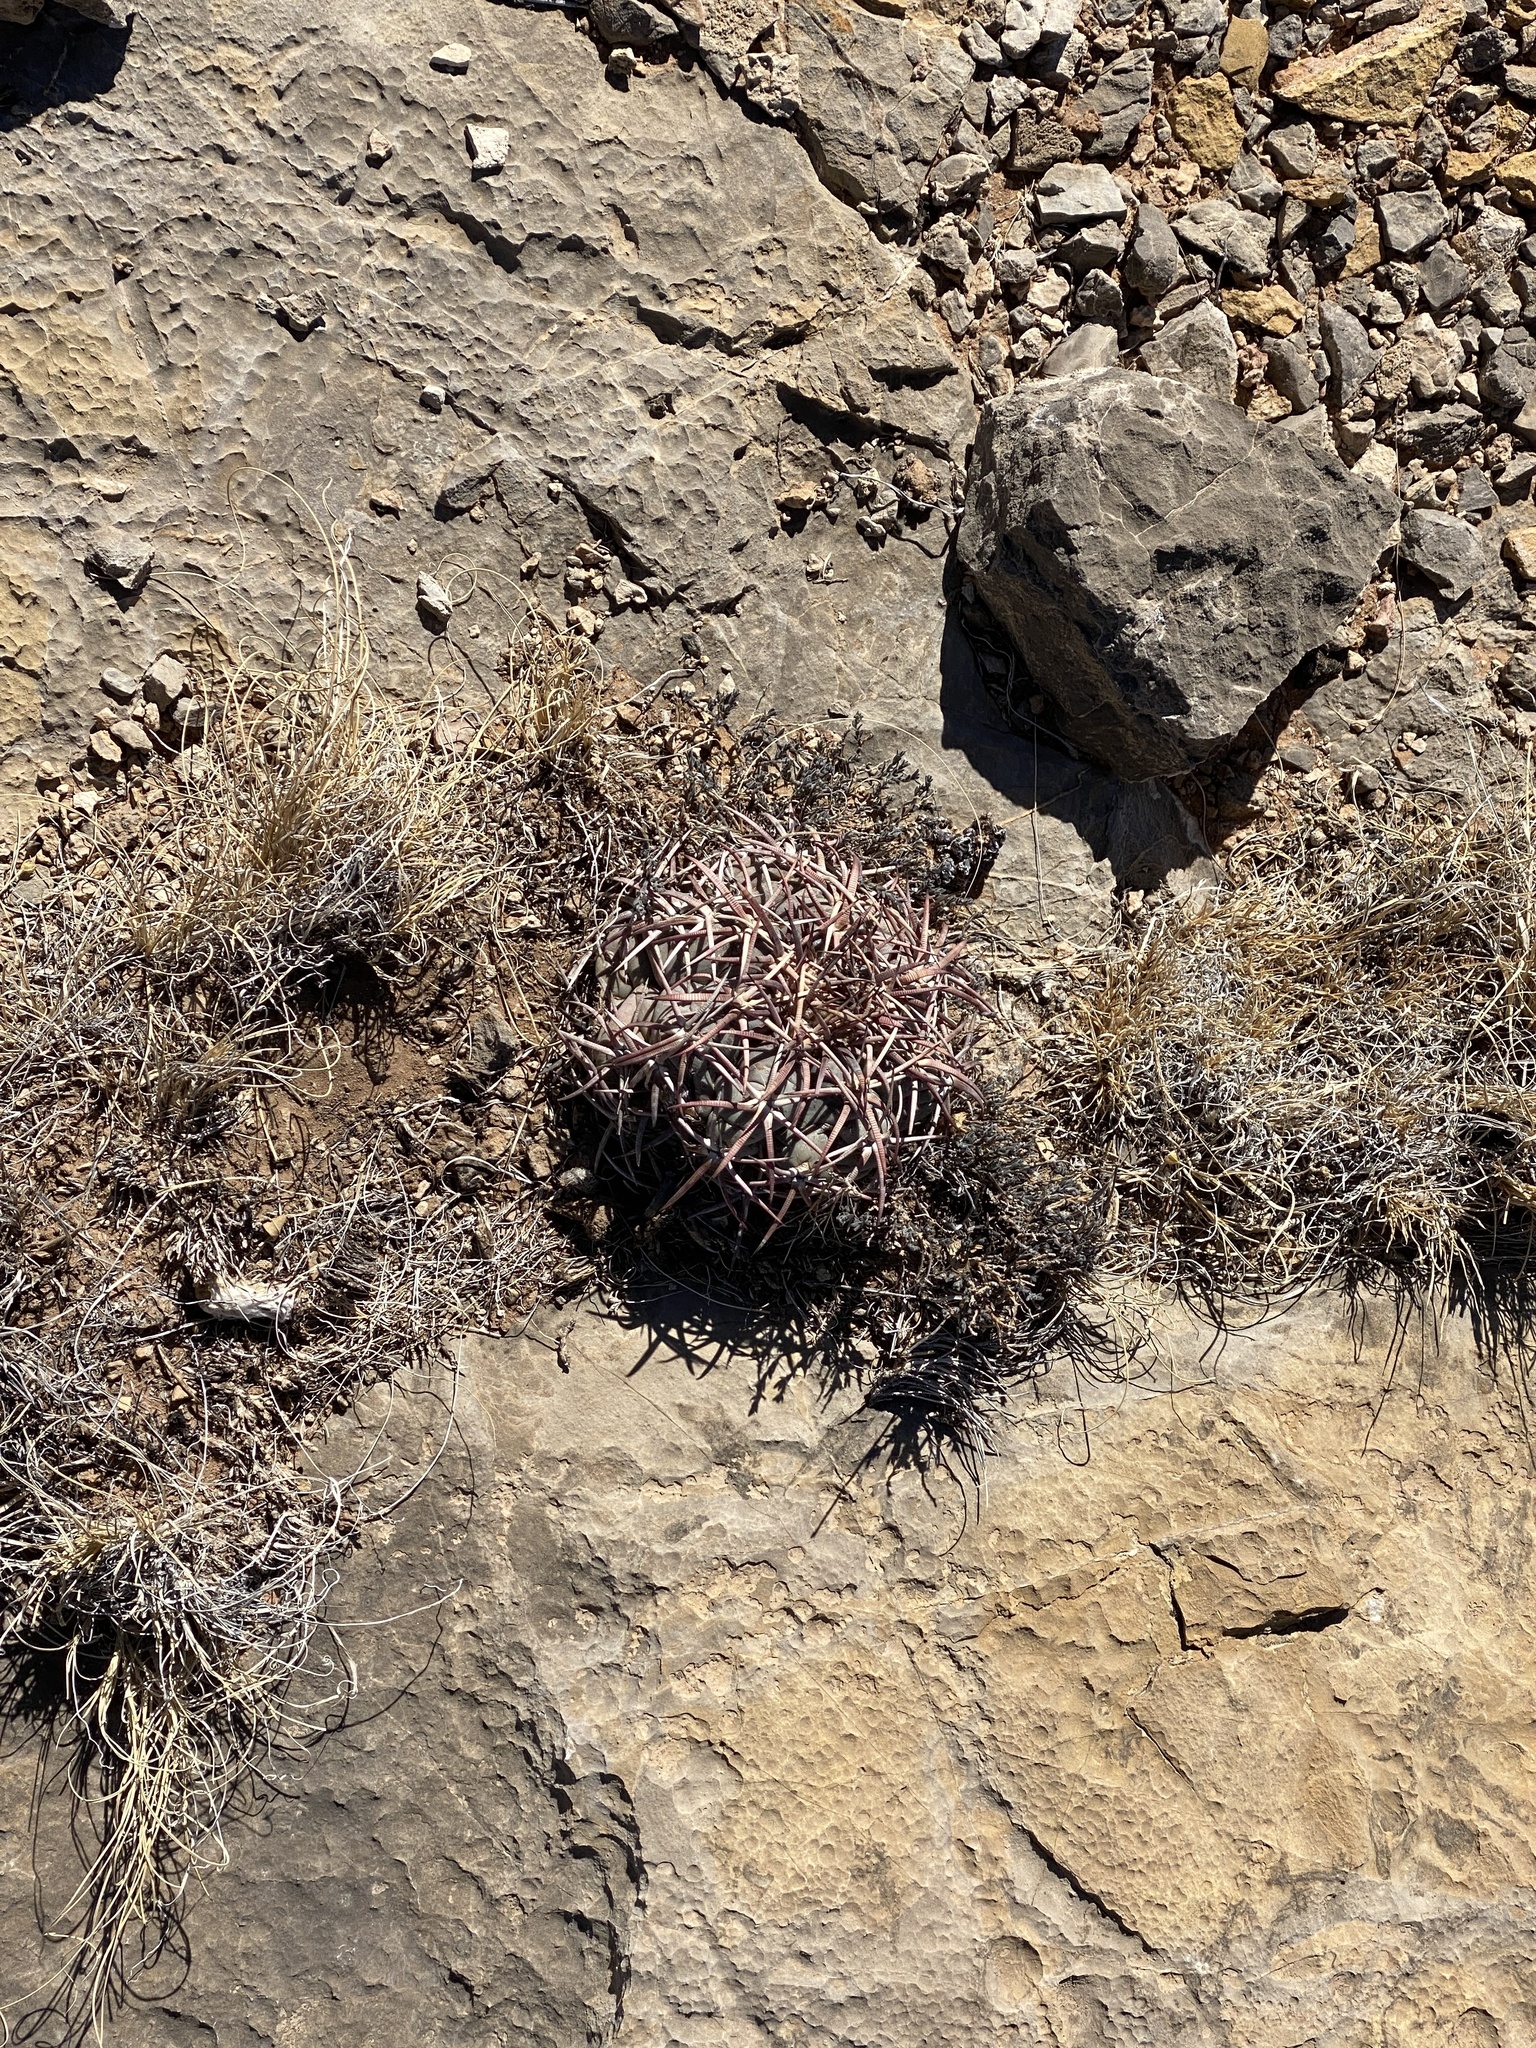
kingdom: Plantae
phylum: Tracheophyta
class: Magnoliopsida
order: Caryophyllales
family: Cactaceae
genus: Echinocactus
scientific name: Echinocactus horizonthalonius
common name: Devilshead
